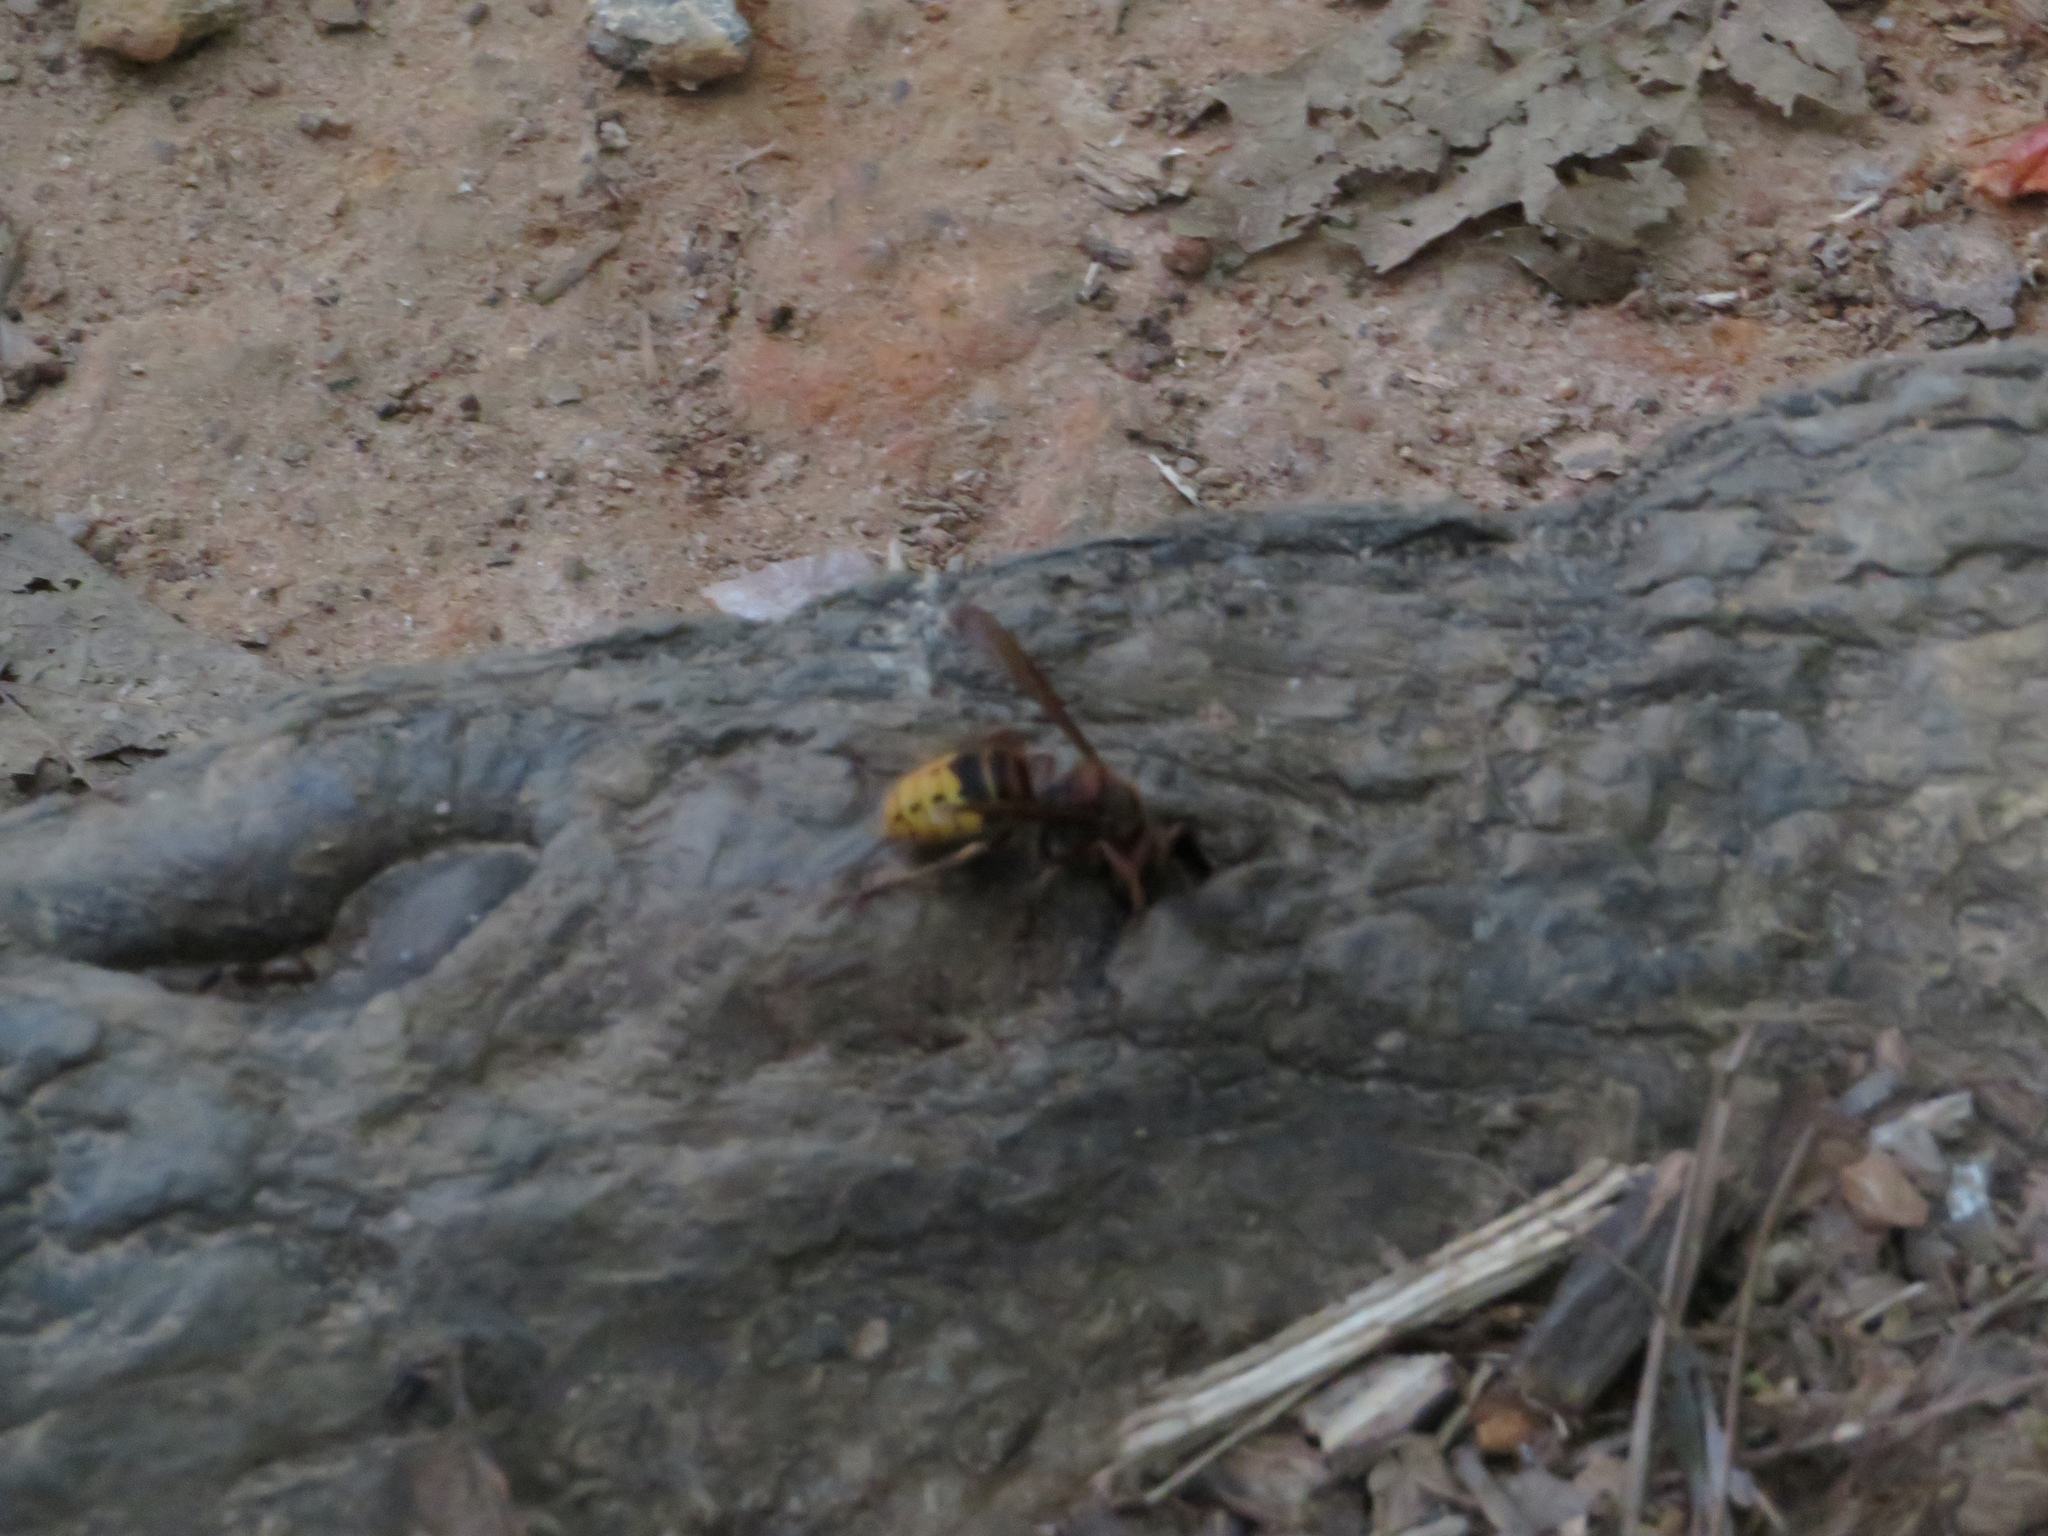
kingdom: Animalia
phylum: Arthropoda
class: Insecta
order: Hymenoptera
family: Vespidae
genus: Vespa
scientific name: Vespa crabro
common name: Hornet
